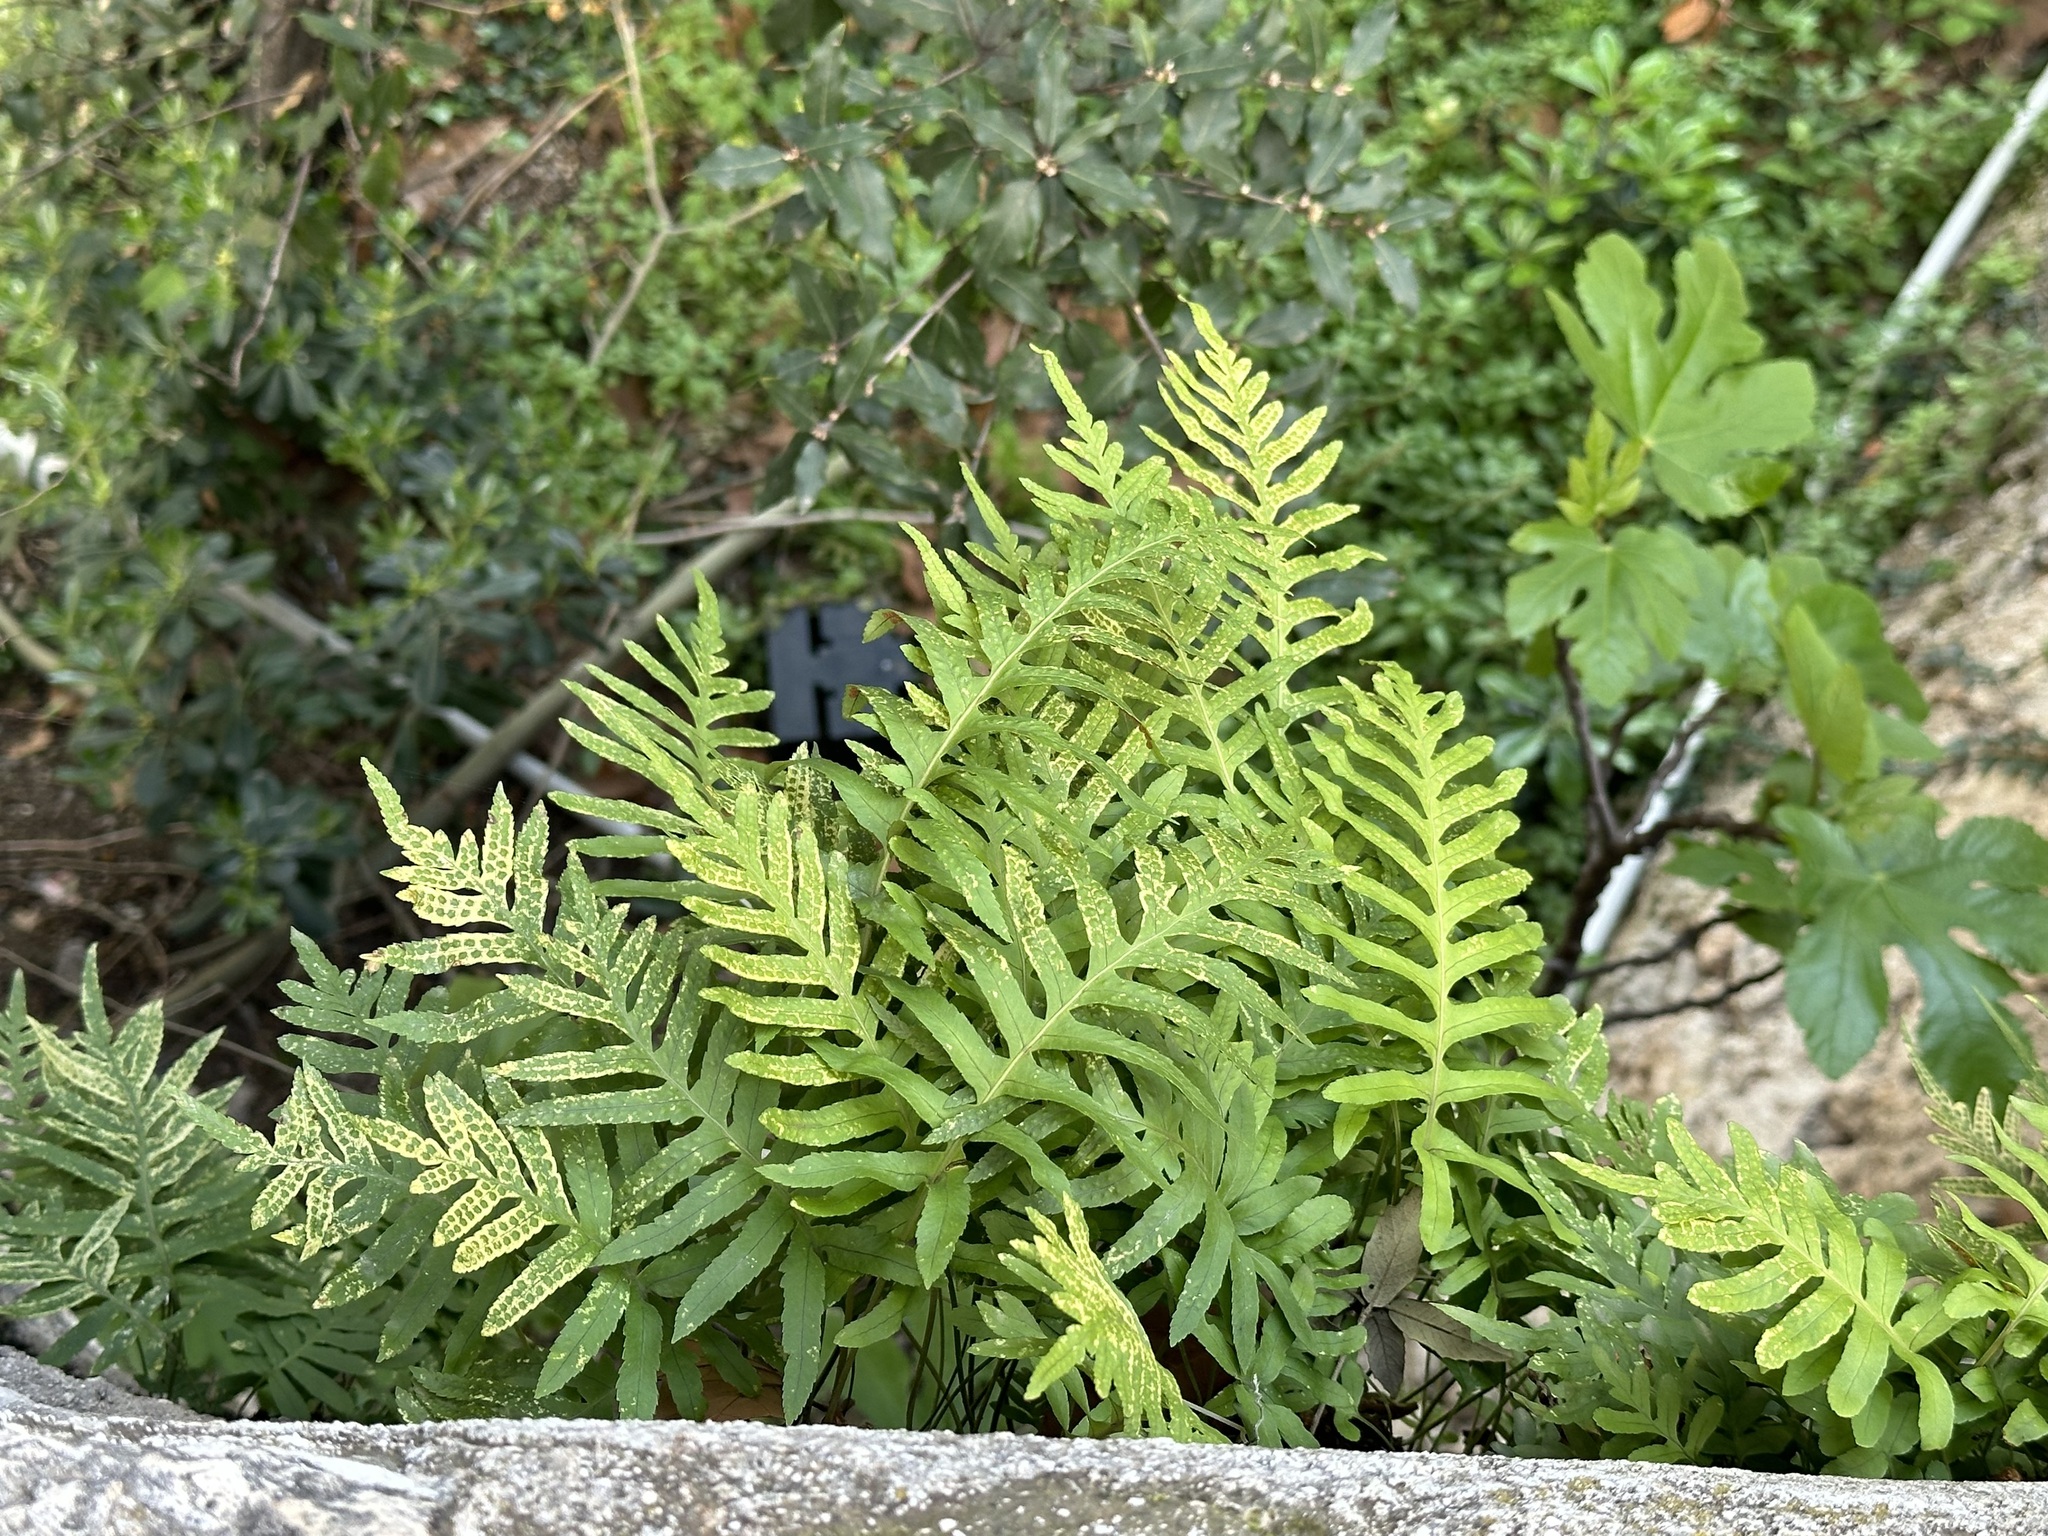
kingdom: Plantae
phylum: Tracheophyta
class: Polypodiopsida
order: Polypodiales
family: Polypodiaceae
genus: Polypodium
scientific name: Polypodium cambricum
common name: Southern polypody
